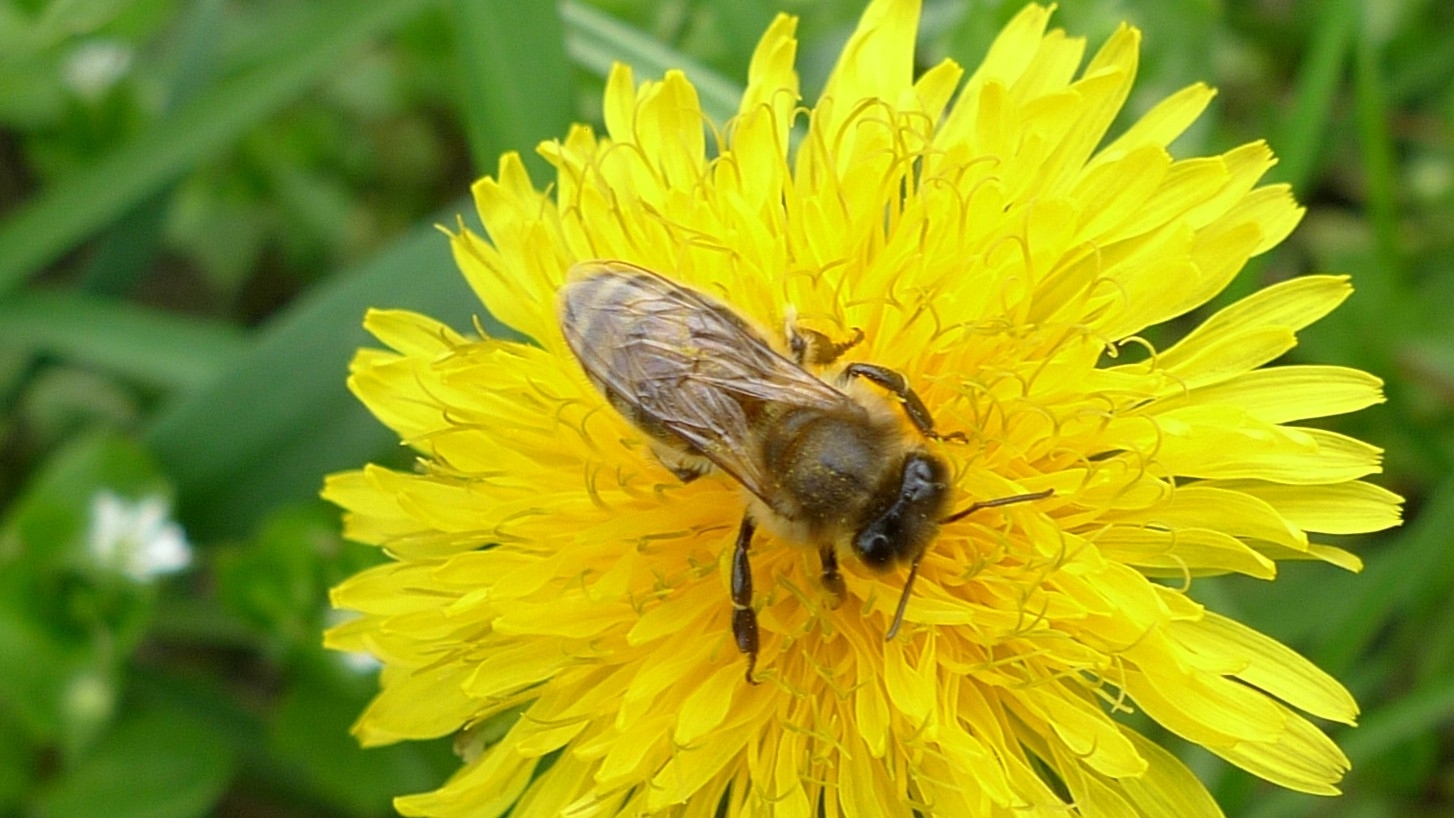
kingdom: Animalia
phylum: Arthropoda
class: Insecta
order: Hymenoptera
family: Apidae
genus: Apis
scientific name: Apis mellifera
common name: Honey bee
